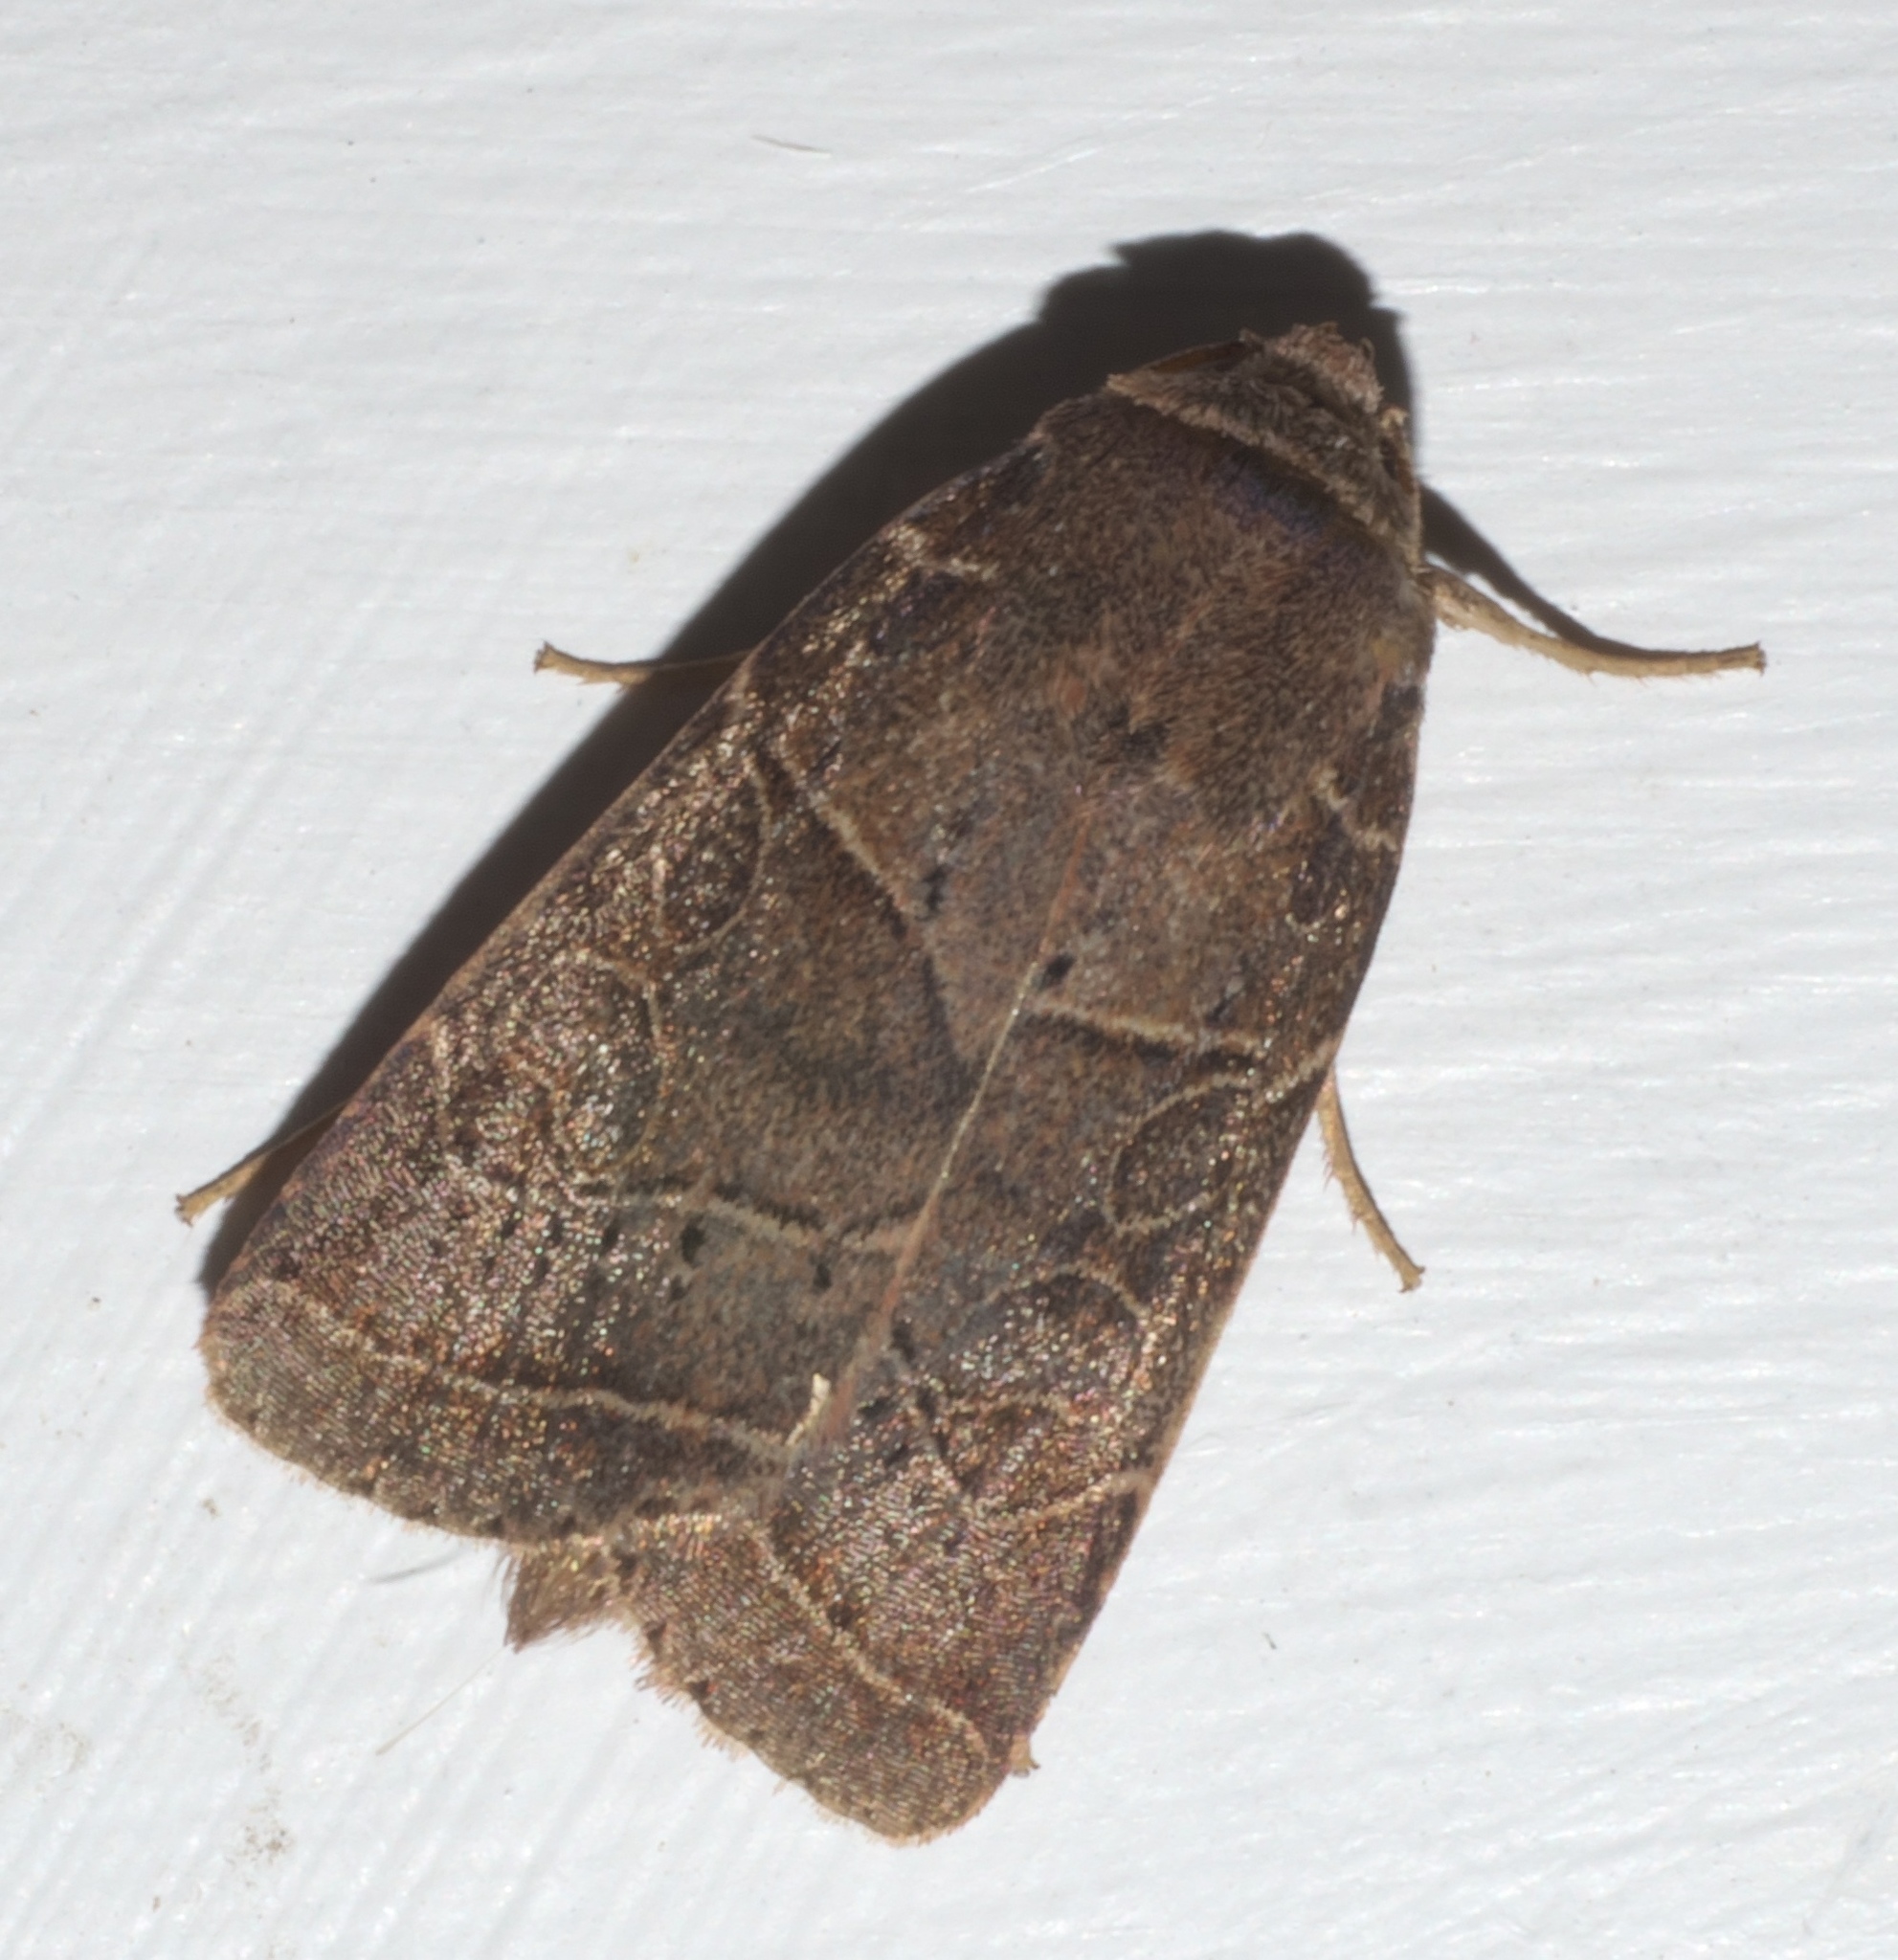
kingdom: Animalia
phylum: Arthropoda
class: Insecta
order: Lepidoptera
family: Noctuidae
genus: Orthodes
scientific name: Orthodes majuscula
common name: Rustic quaker
